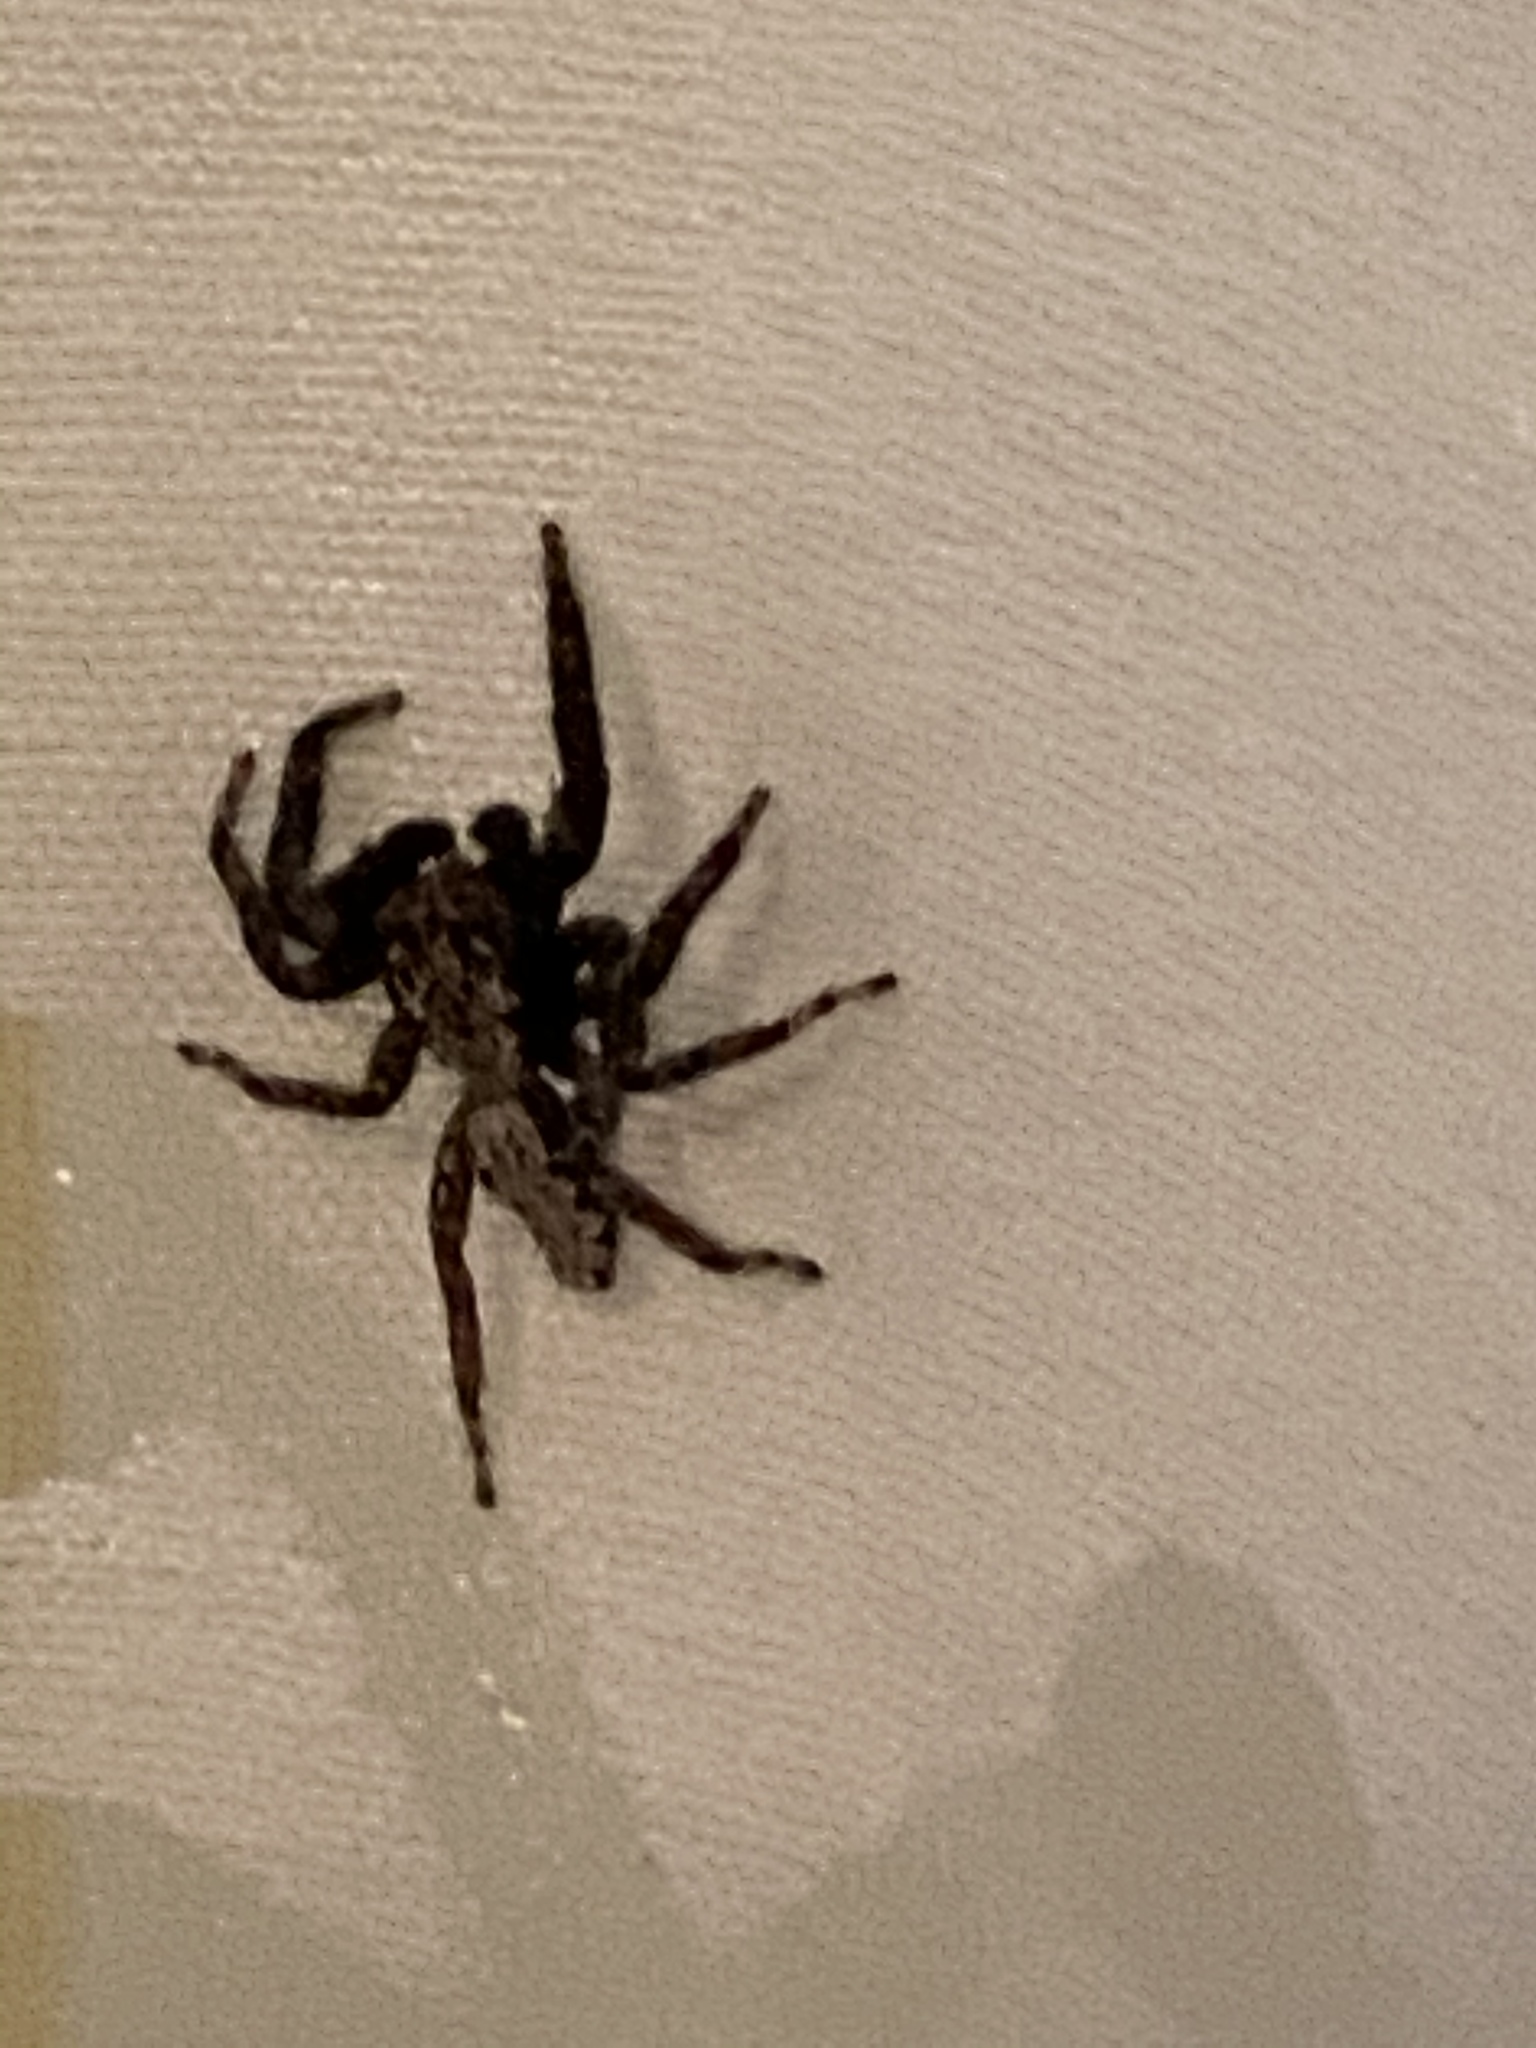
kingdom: Animalia
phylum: Arthropoda
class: Arachnida
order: Araneae
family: Salticidae
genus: Platycryptus
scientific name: Platycryptus californicus
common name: Jumping spiders
